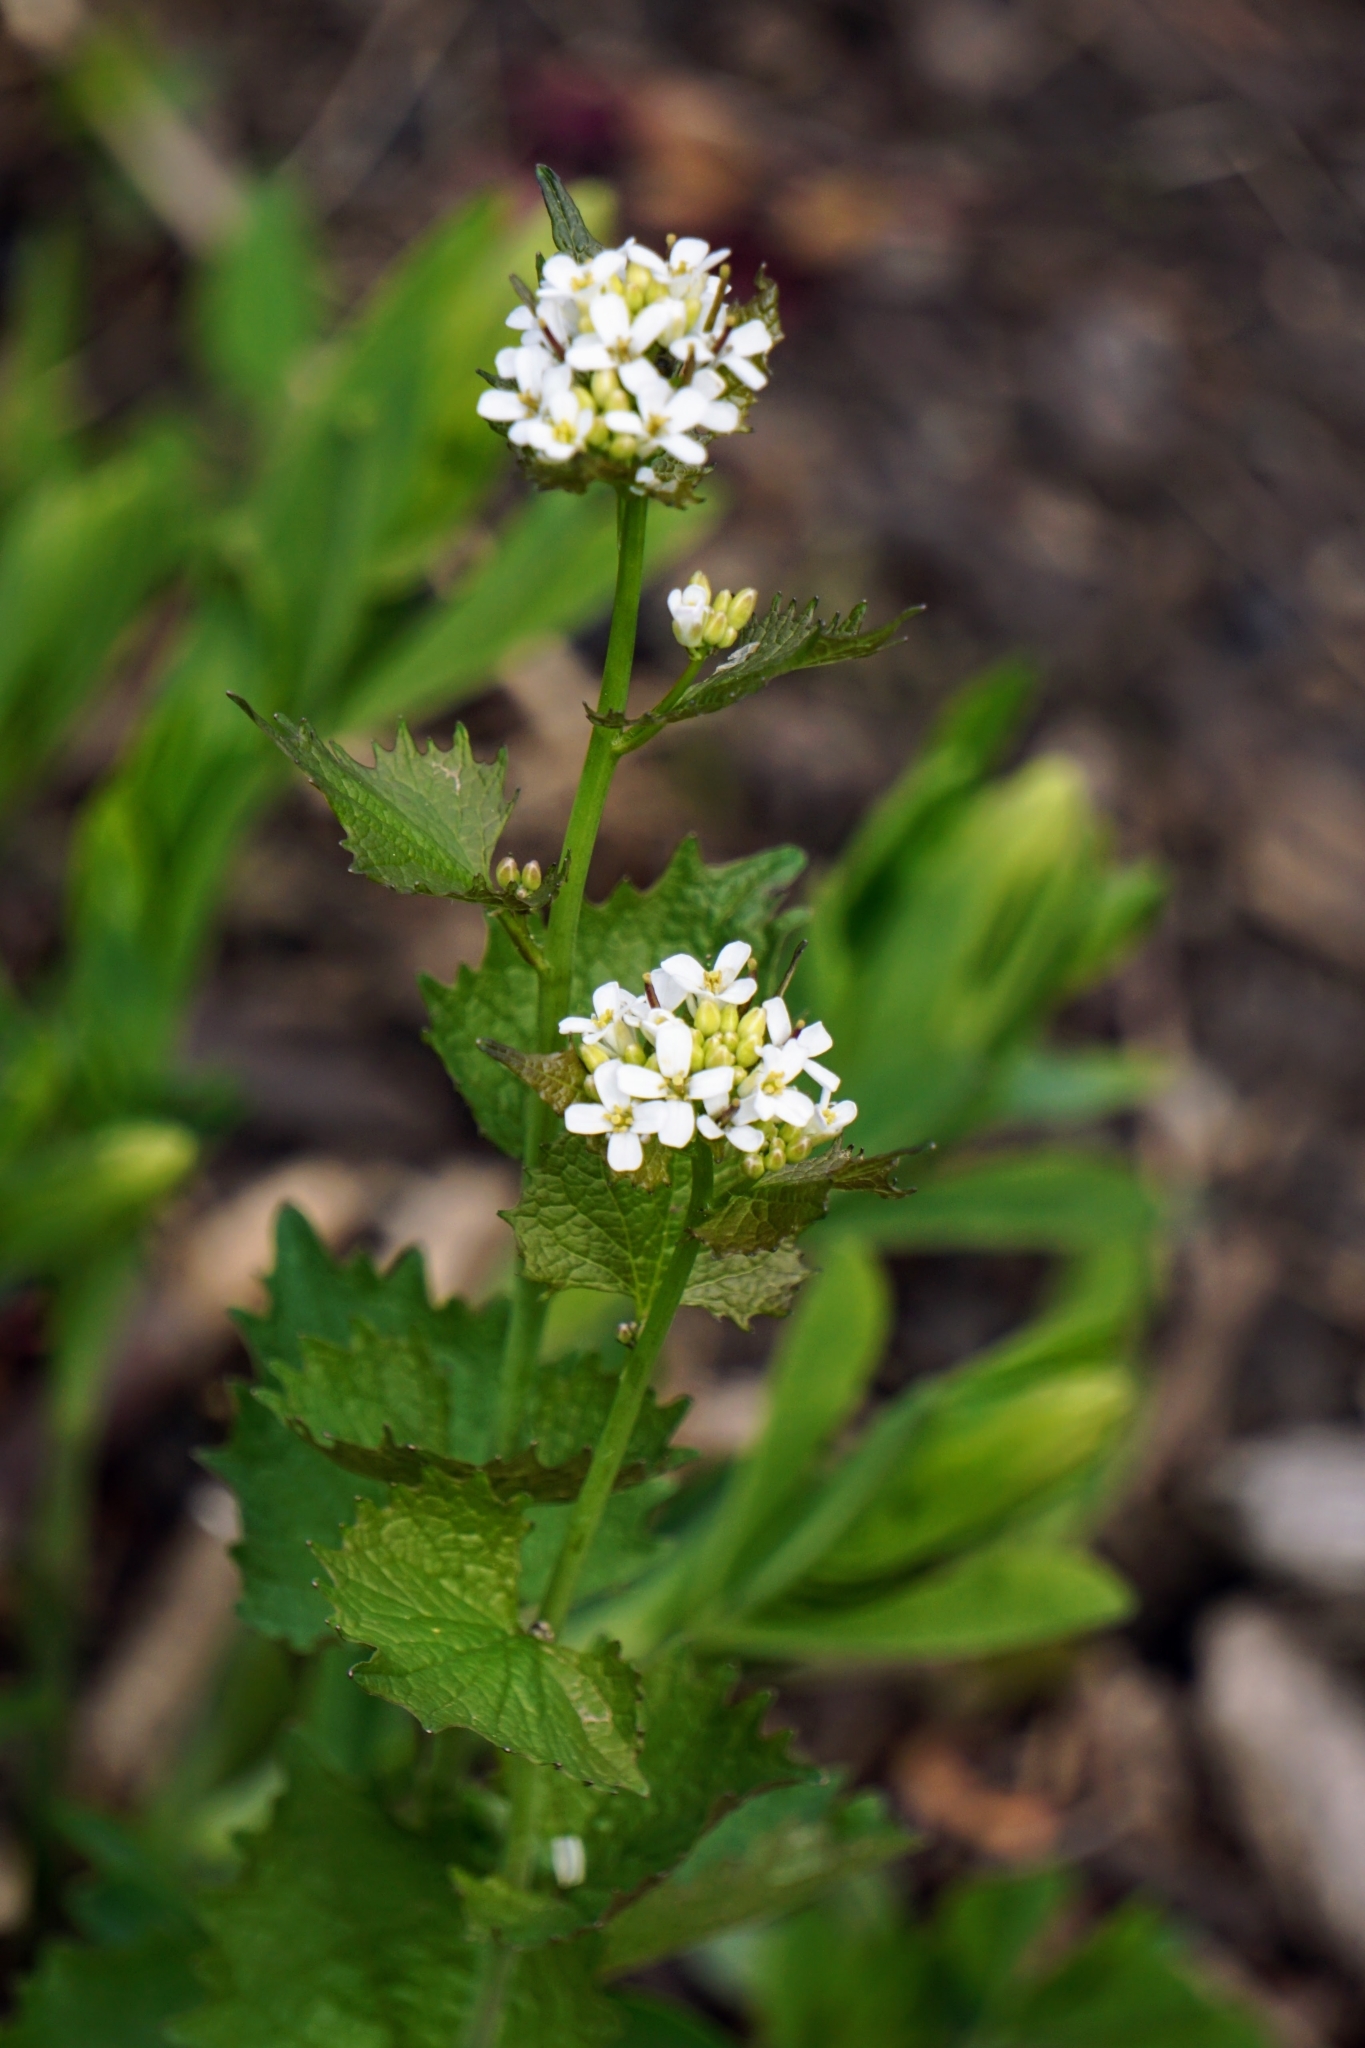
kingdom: Plantae
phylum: Tracheophyta
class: Magnoliopsida
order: Brassicales
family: Brassicaceae
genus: Alliaria
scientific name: Alliaria petiolata
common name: Garlic mustard
